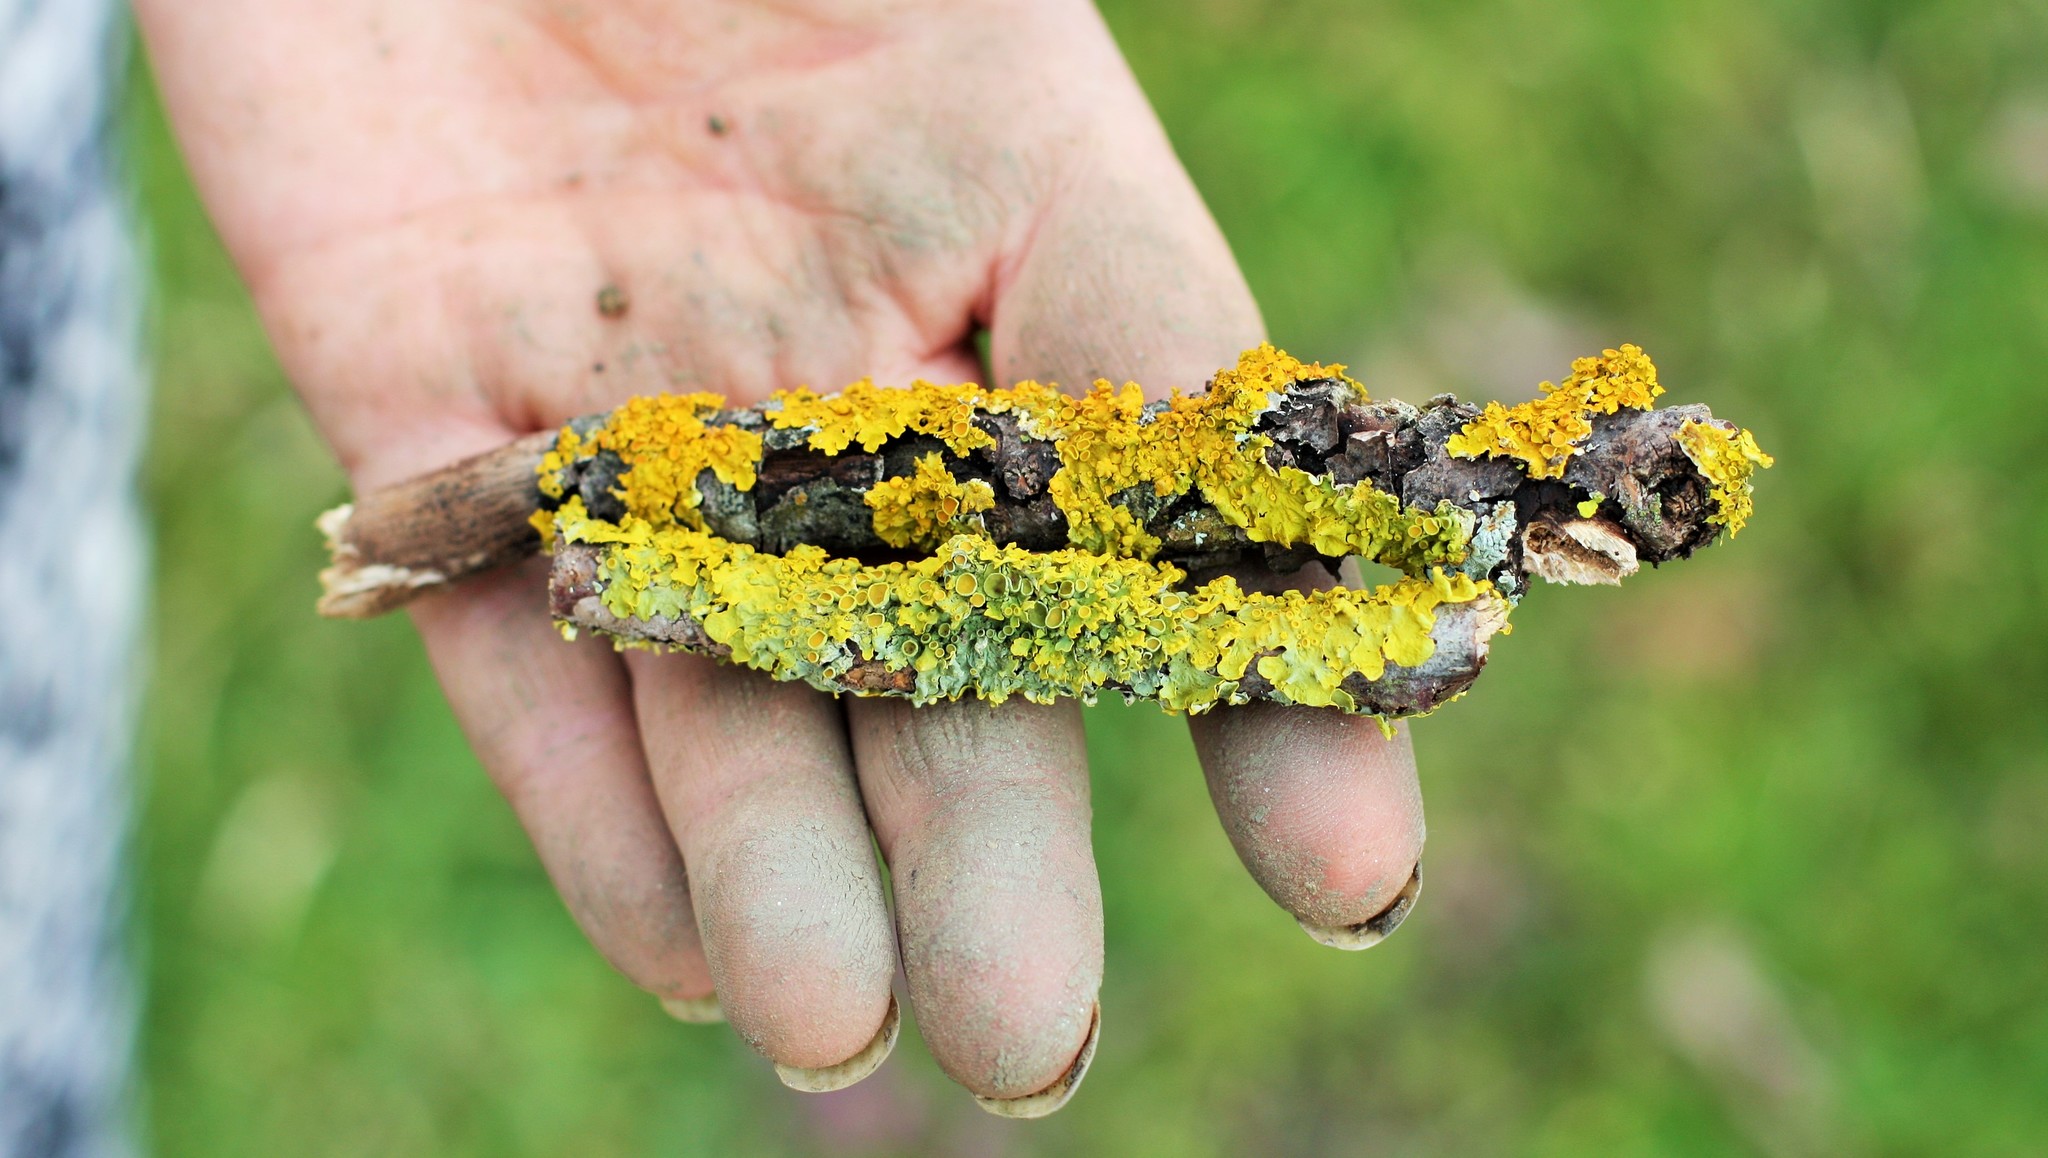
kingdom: Fungi
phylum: Ascomycota
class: Lecanoromycetes
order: Teloschistales
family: Teloschistaceae
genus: Xanthoria
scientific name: Xanthoria parietina
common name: Common orange lichen
